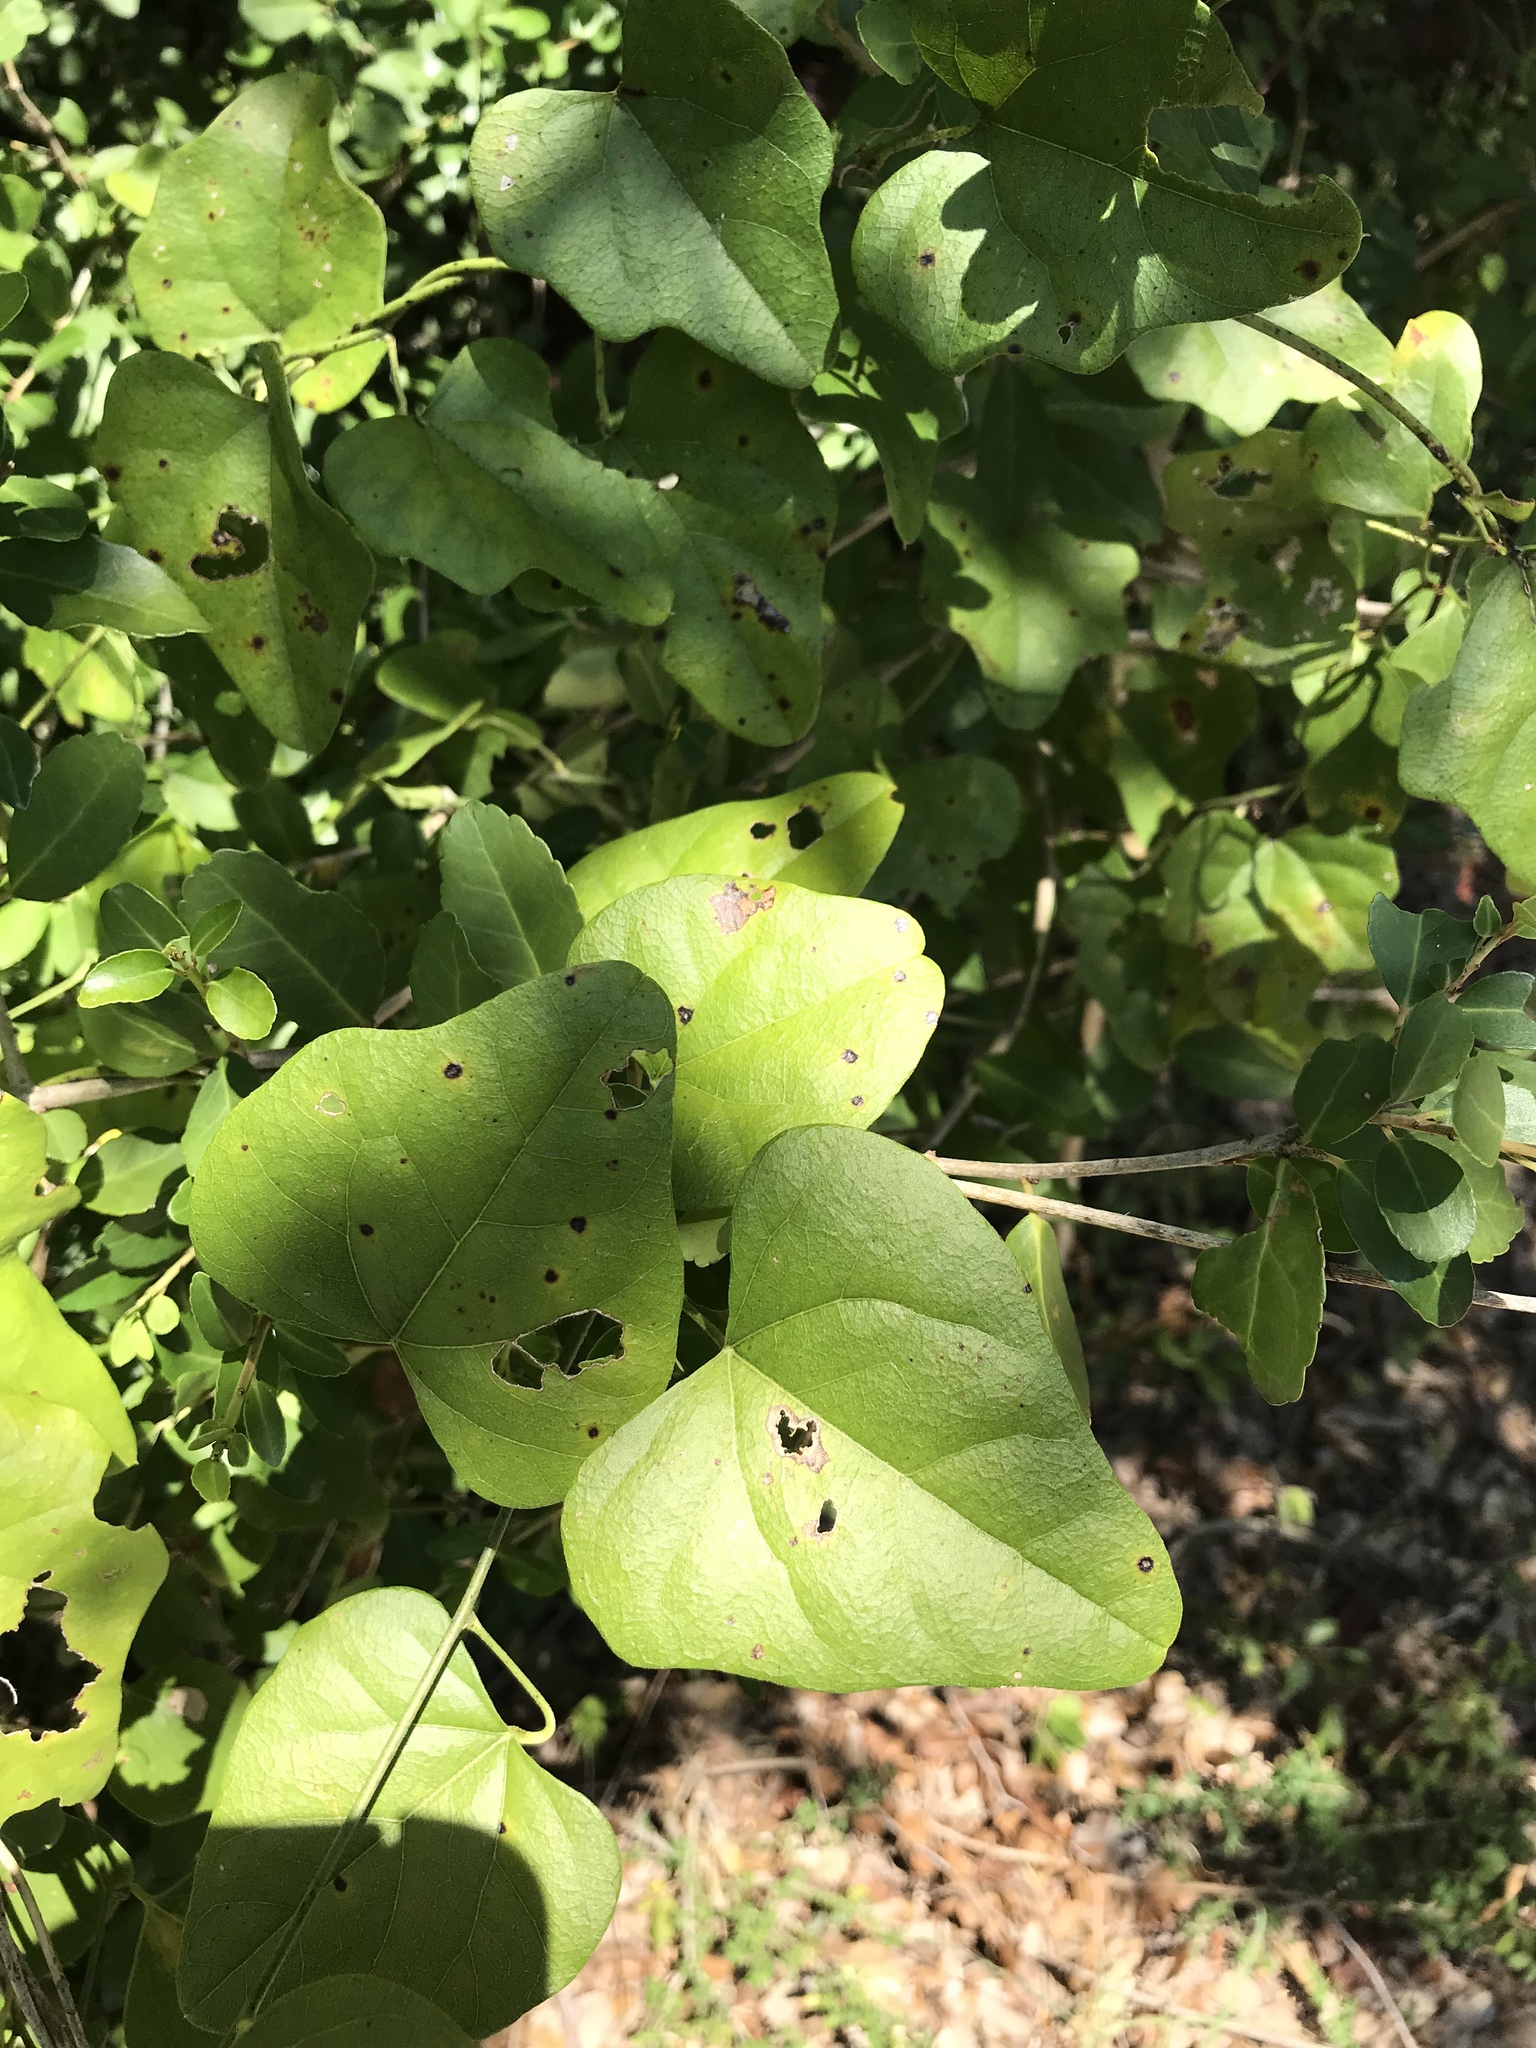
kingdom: Plantae
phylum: Tracheophyta
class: Magnoliopsida
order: Ranunculales
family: Menispermaceae
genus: Cocculus
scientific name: Cocculus carolinus
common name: Carolina moonseed
